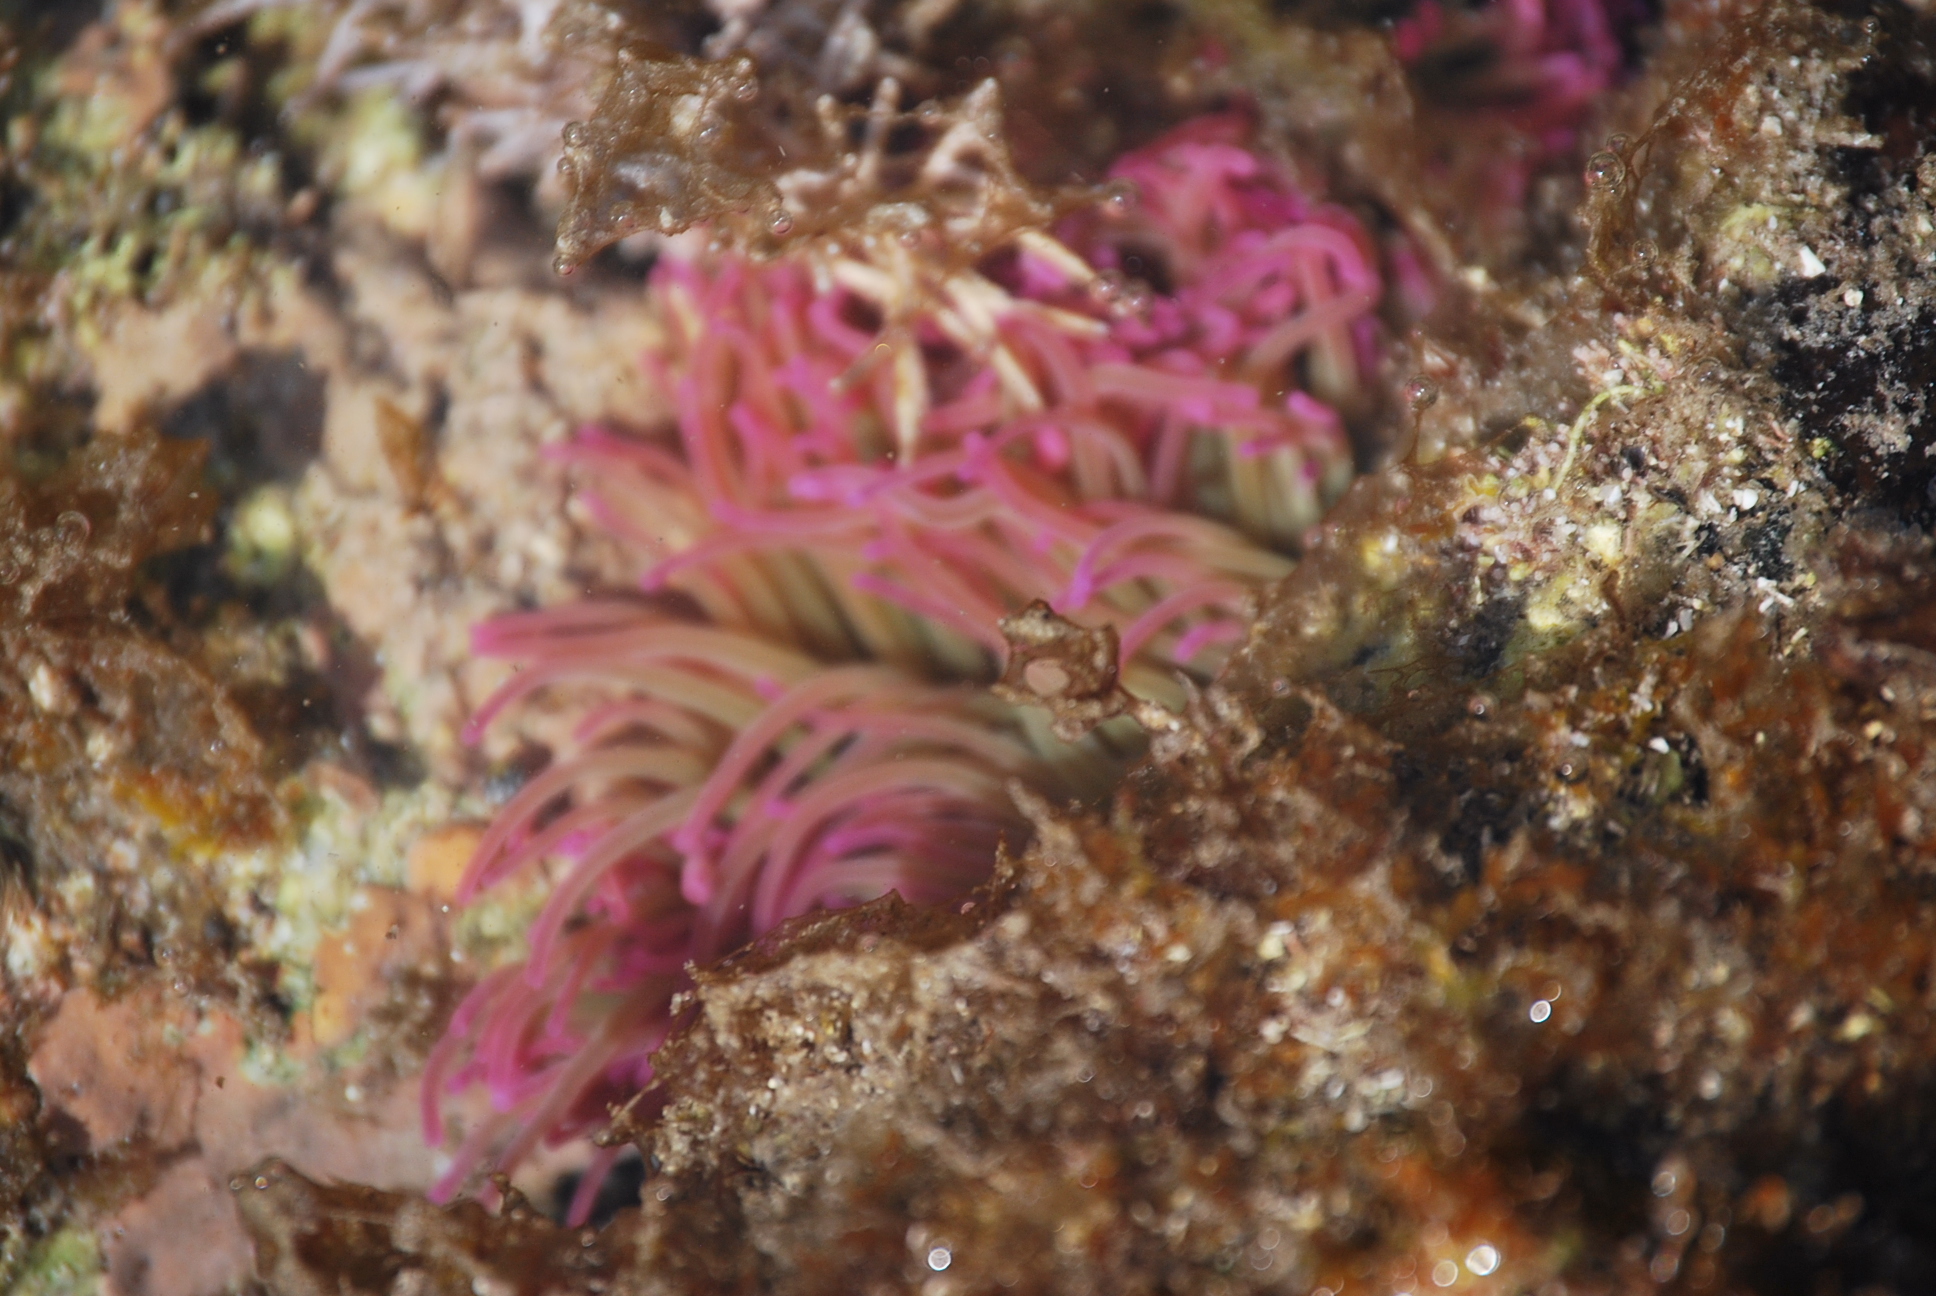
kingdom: Animalia
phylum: Cnidaria
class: Anthozoa
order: Actiniaria
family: Actiniidae
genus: Anemonia
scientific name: Anemonia viridis
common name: Snakelocks anemone
